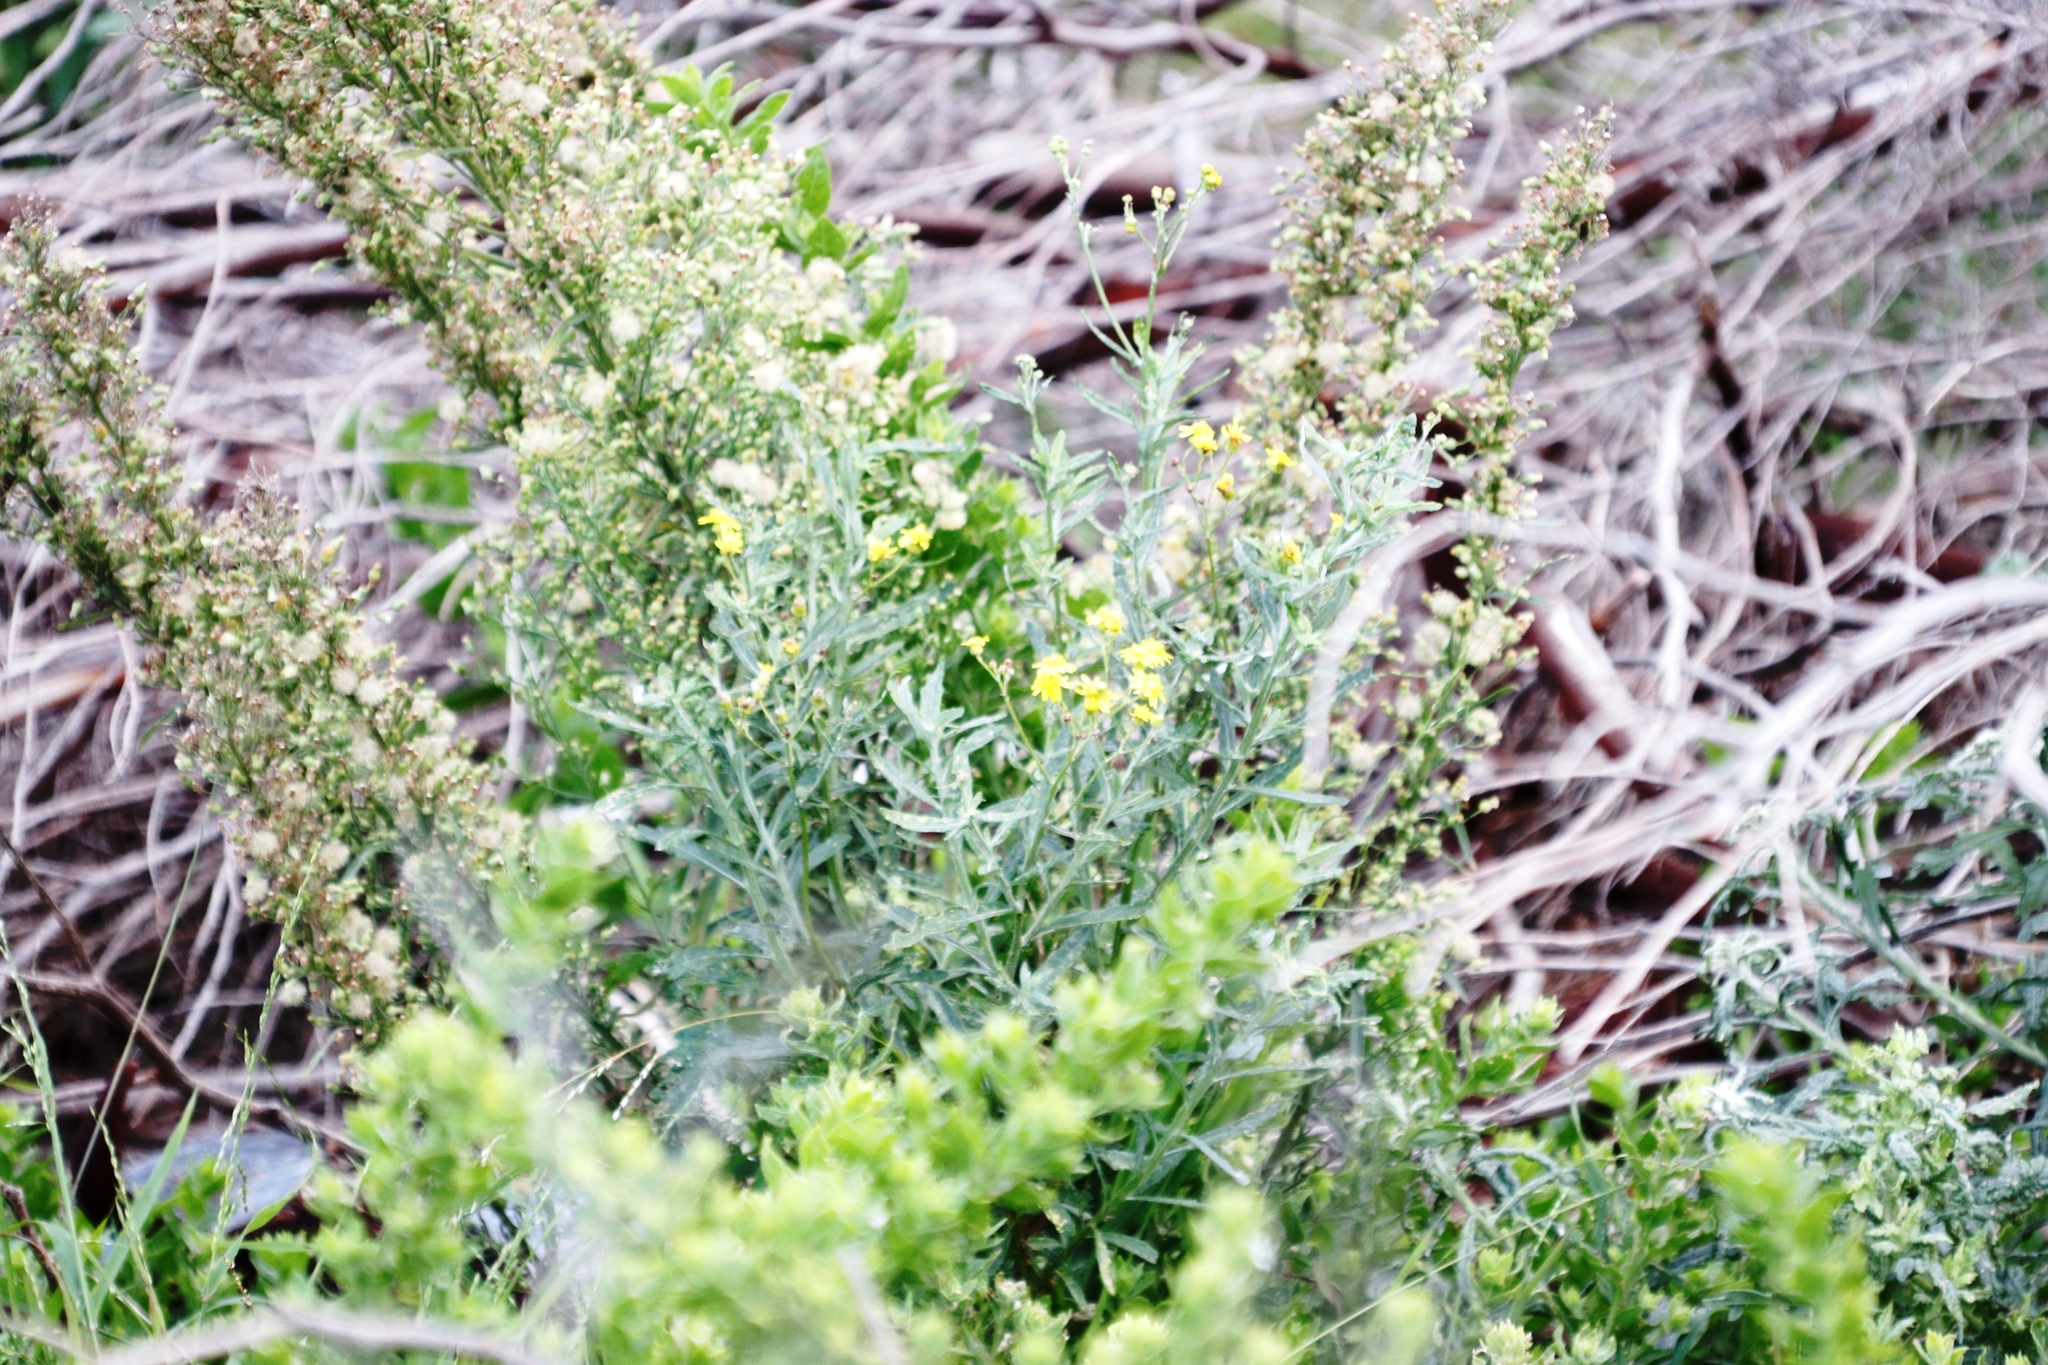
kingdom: Plantae
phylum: Tracheophyta
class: Magnoliopsida
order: Asterales
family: Asteraceae
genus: Senecio
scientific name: Senecio pterophorus
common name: Shoddy ragwort
